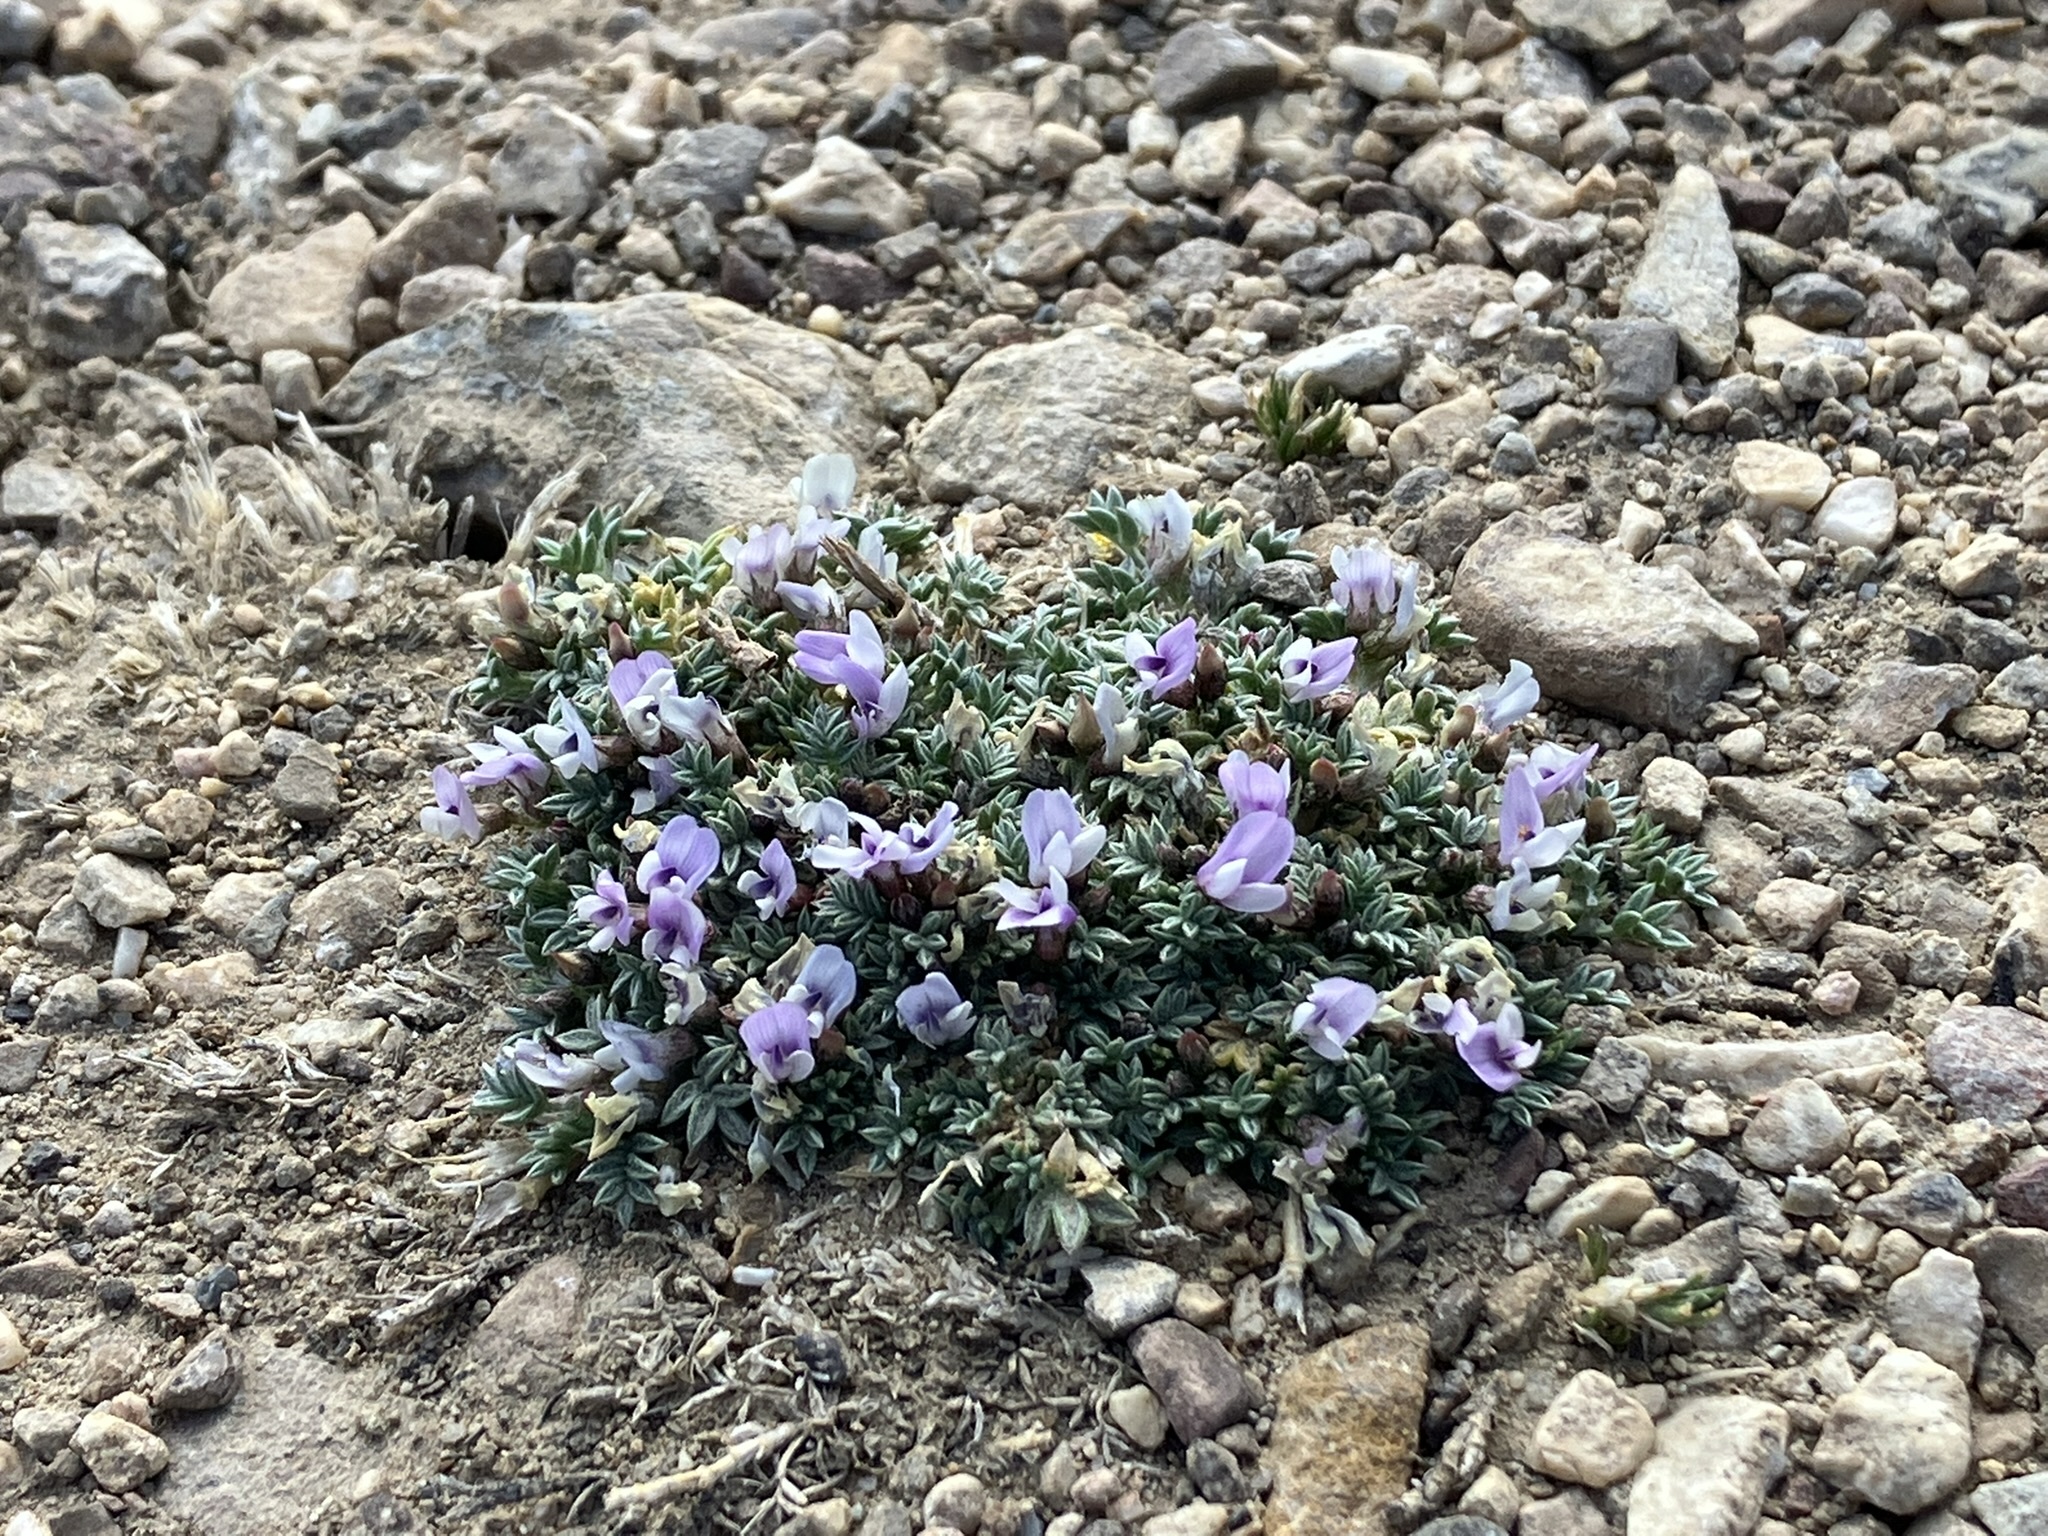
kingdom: Plantae
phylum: Tracheophyta
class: Magnoliopsida
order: Fabales
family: Fabaceae
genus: Astragalus
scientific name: Astragalus kentrophyta
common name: Prickly milk-vetch
